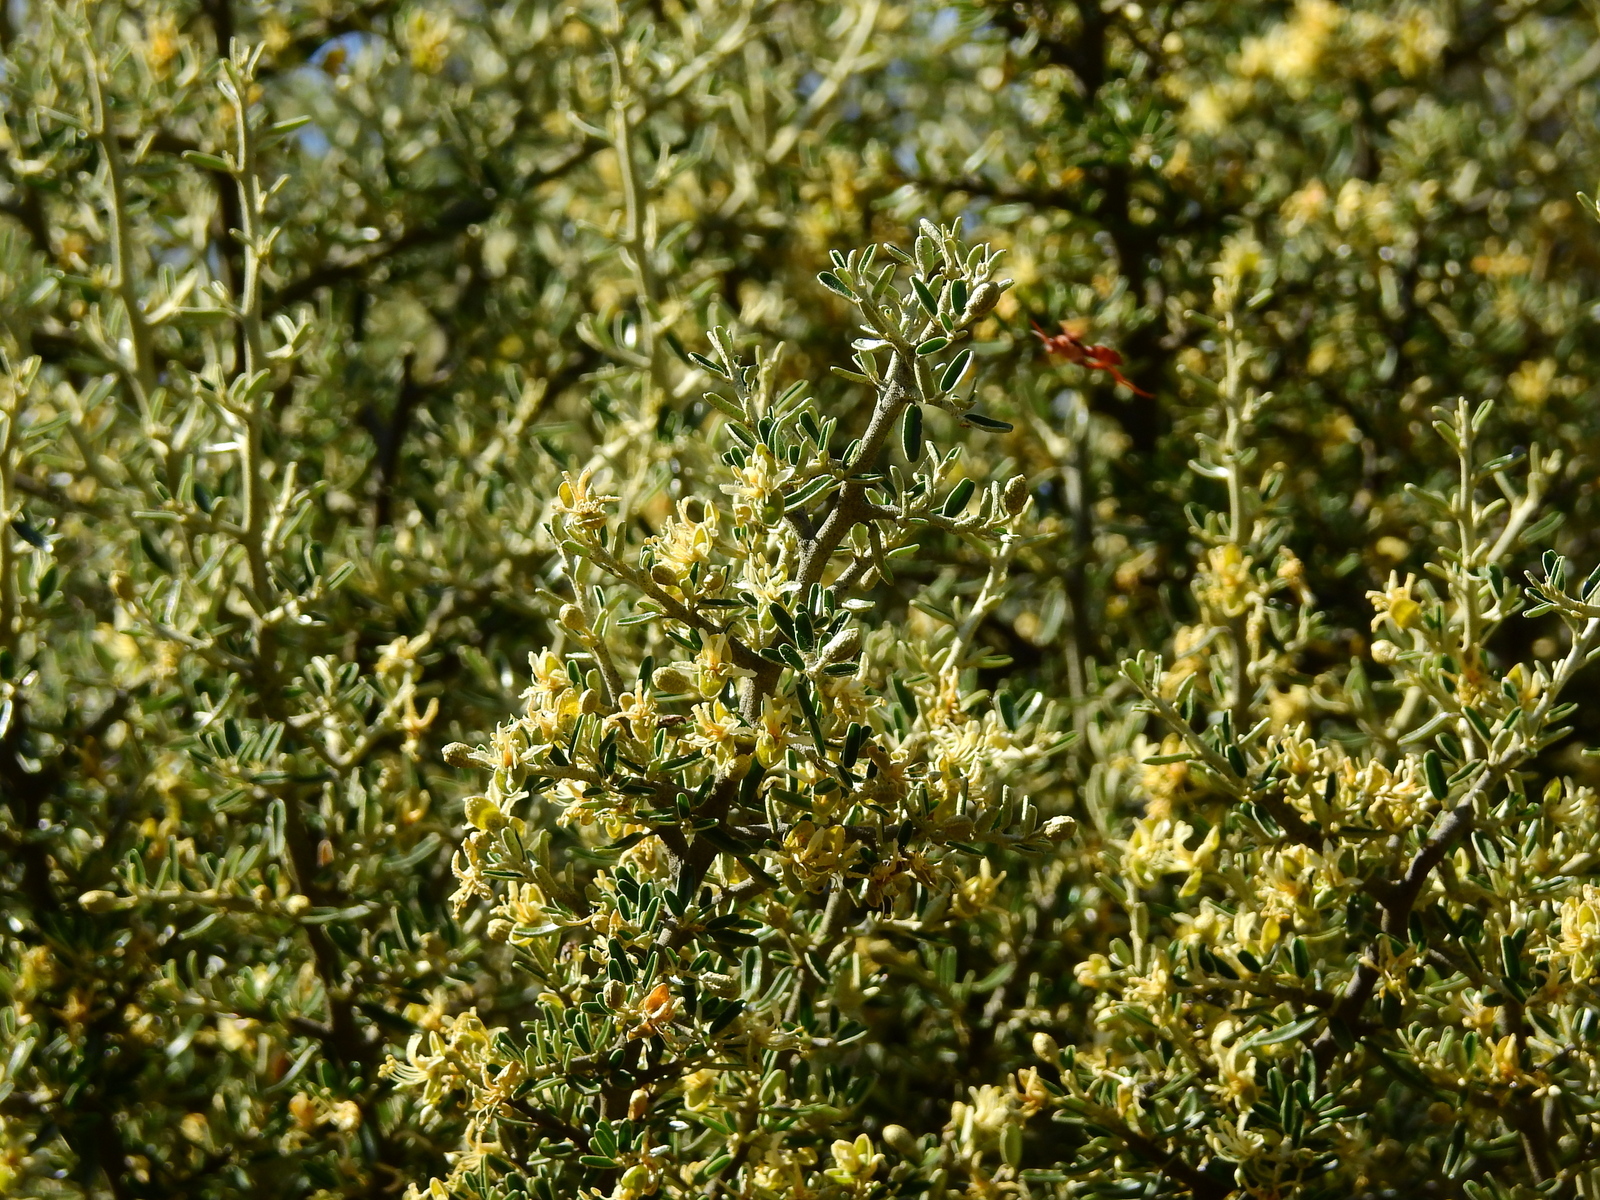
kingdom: Plantae
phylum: Tracheophyta
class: Magnoliopsida
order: Brassicales
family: Capparaceae
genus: Atamisquea
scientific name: Atamisquea emarginata
